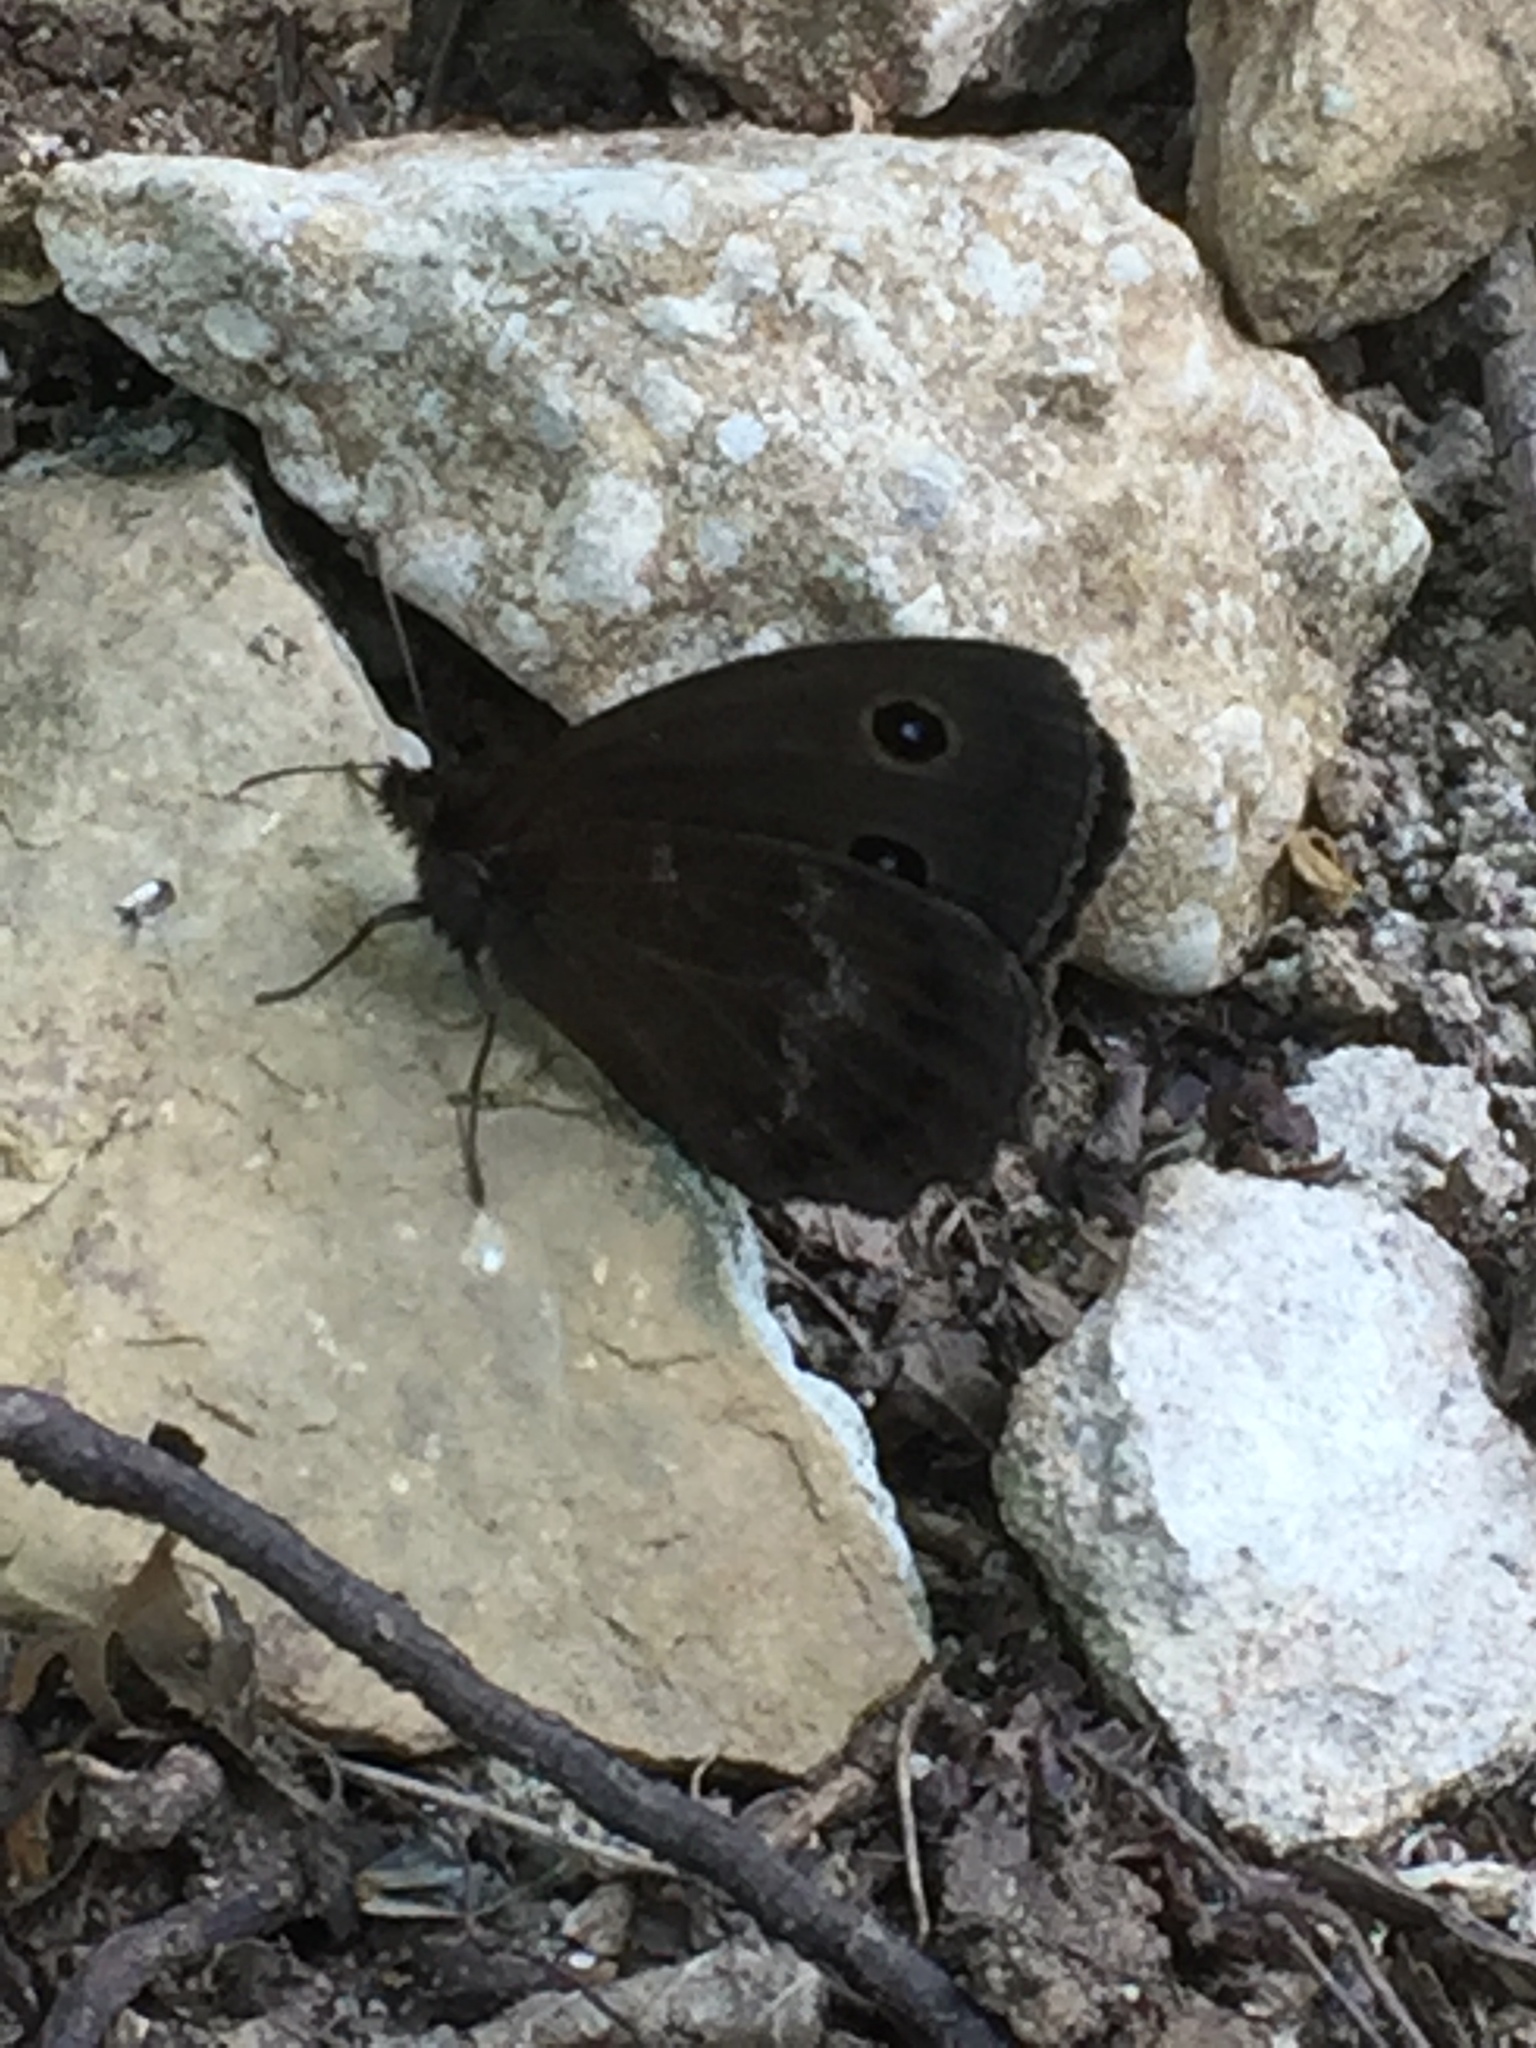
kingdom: Animalia
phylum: Arthropoda
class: Insecta
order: Lepidoptera
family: Nymphalidae
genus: Minois
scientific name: Minois dryas
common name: Dryad
